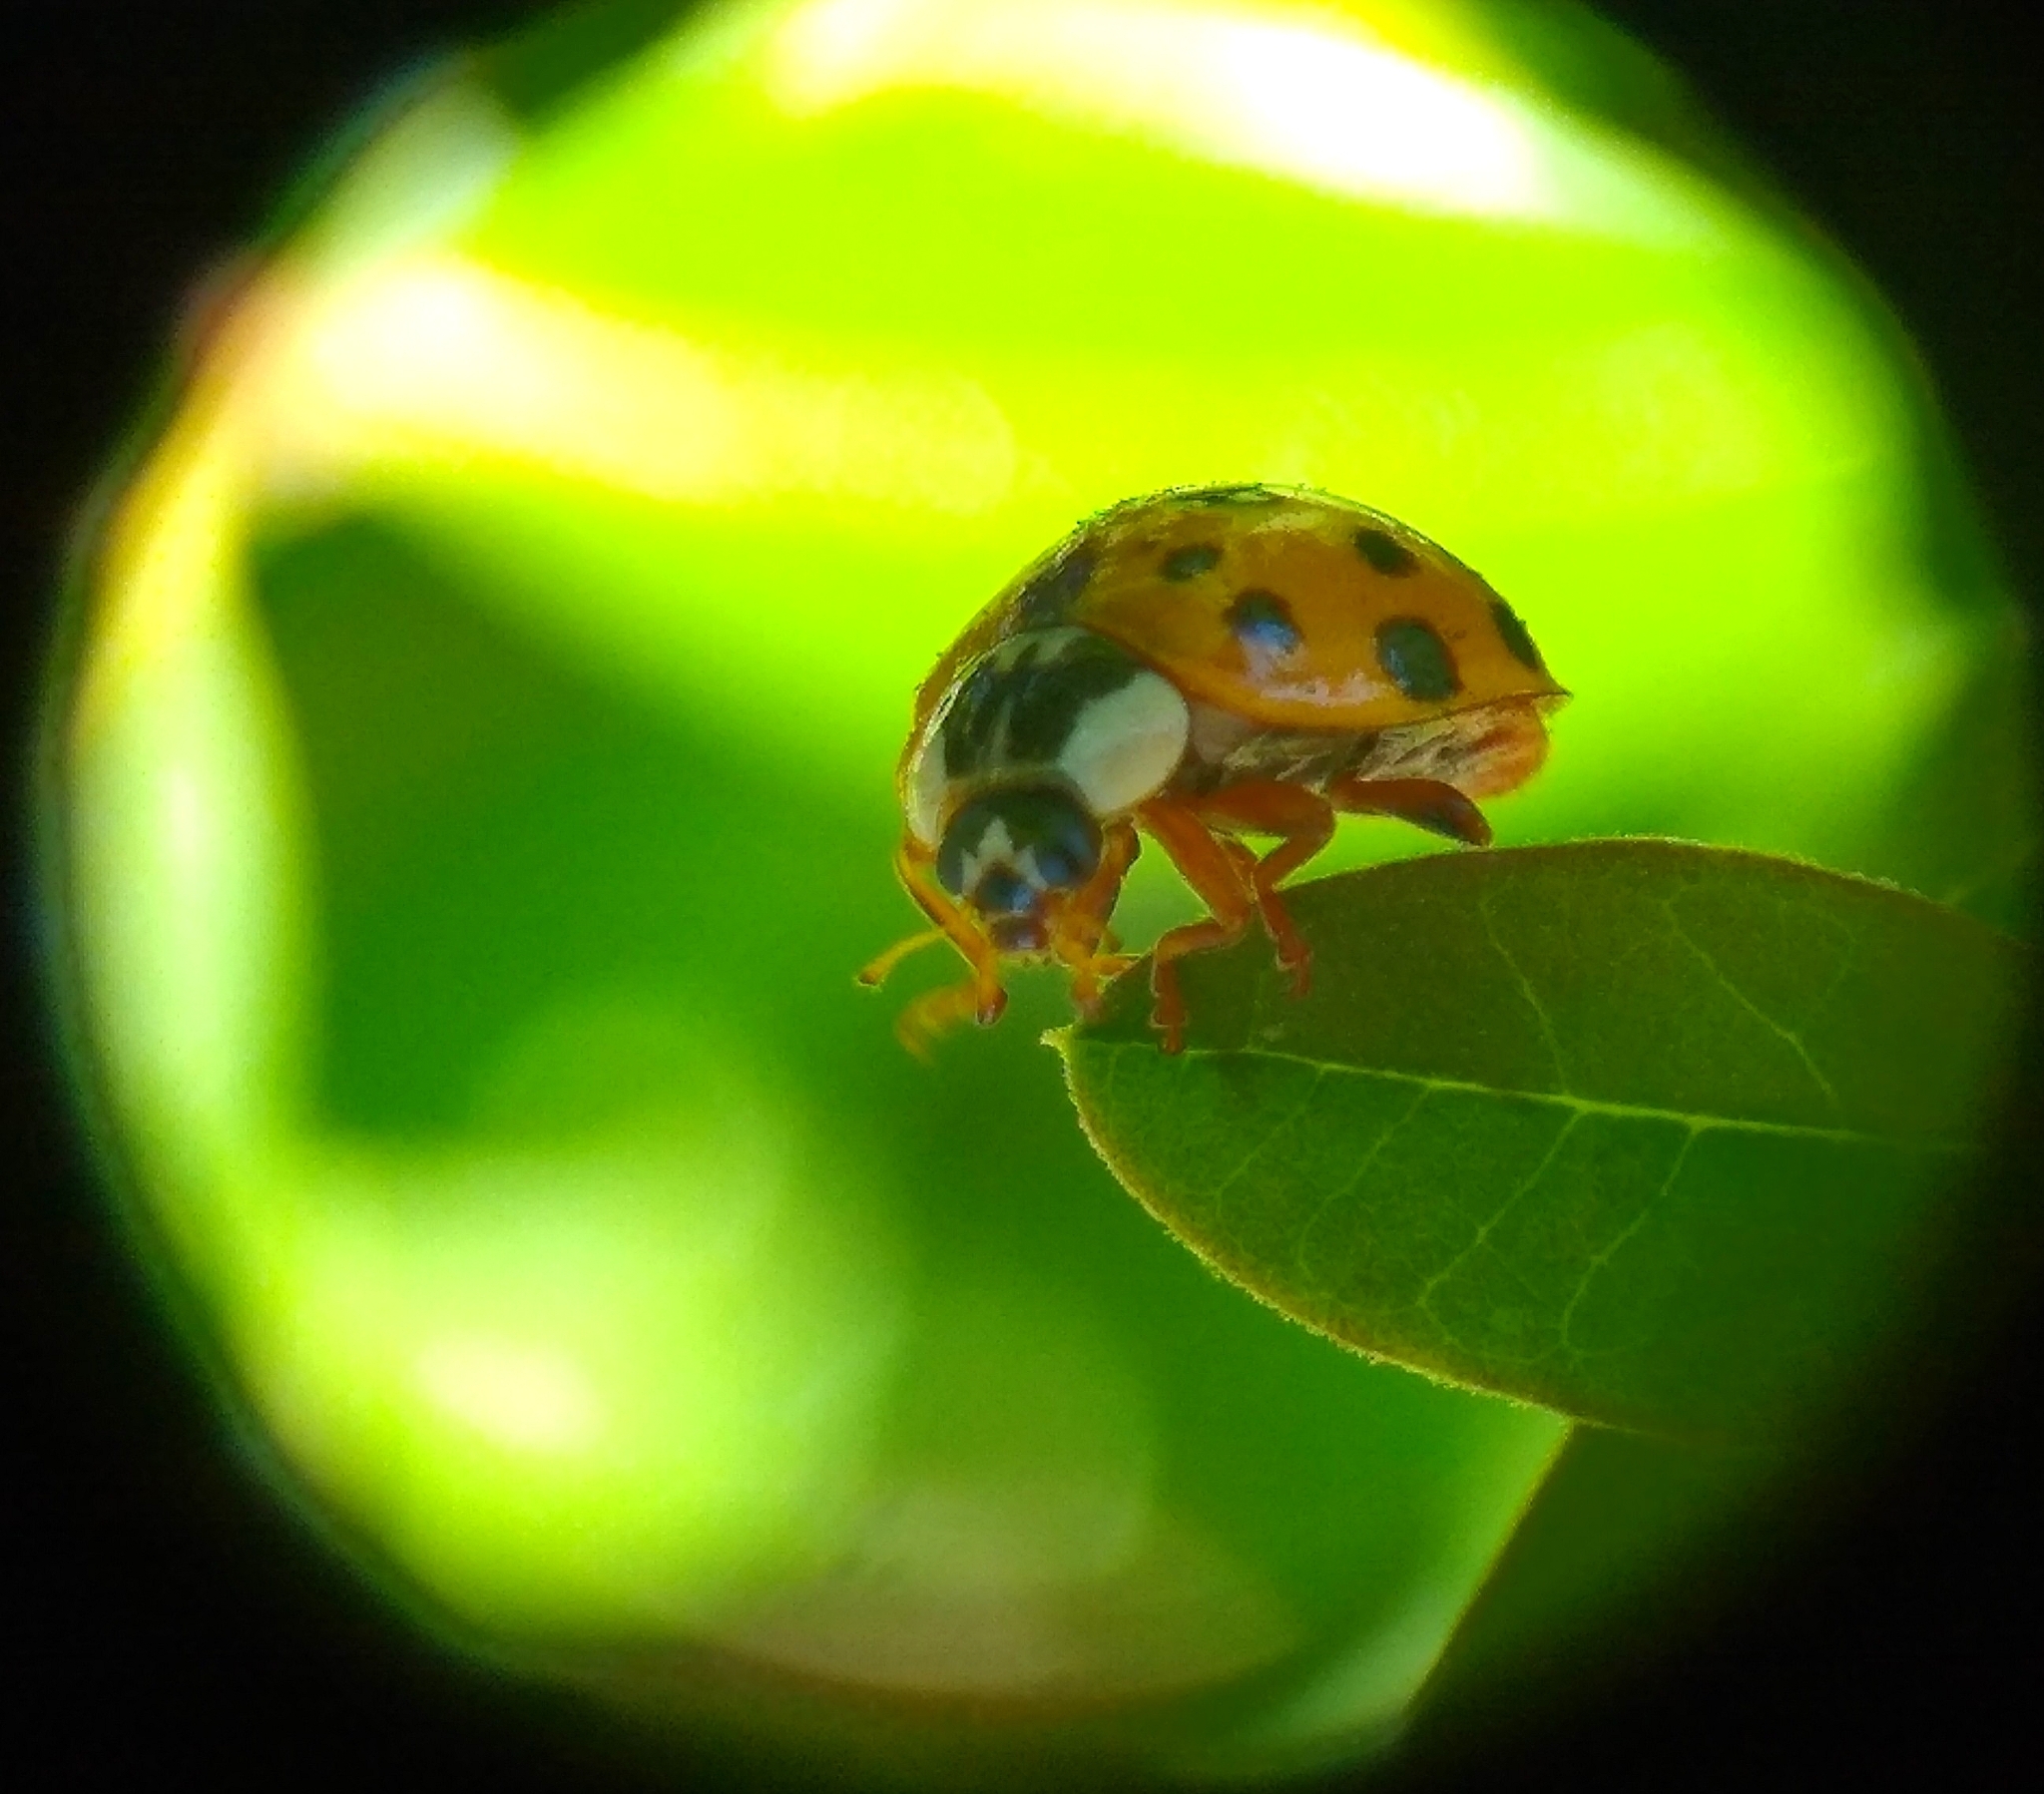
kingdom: Animalia
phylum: Arthropoda
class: Insecta
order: Coleoptera
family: Coccinellidae
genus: Harmonia
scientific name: Harmonia axyridis
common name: Harlequin ladybird
